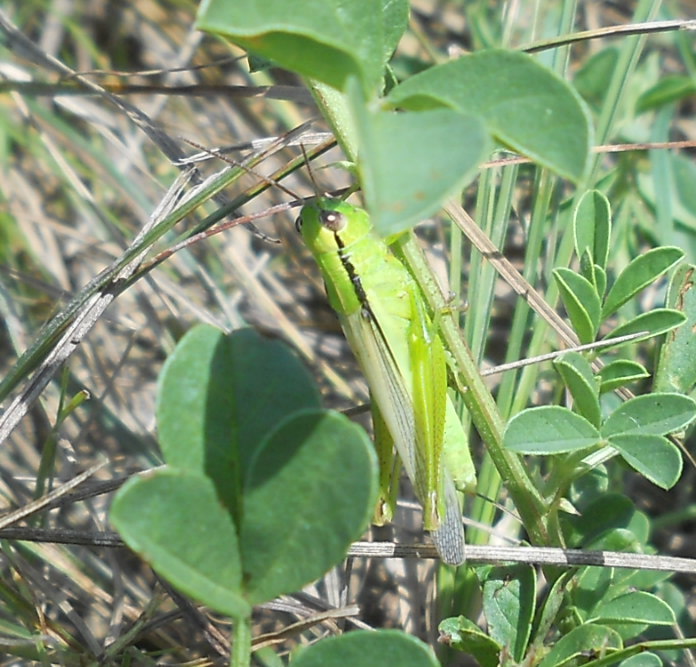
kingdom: Animalia
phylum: Arthropoda
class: Insecta
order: Orthoptera
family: Acrididae
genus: Mecostethus
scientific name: Mecostethus parapleurus
